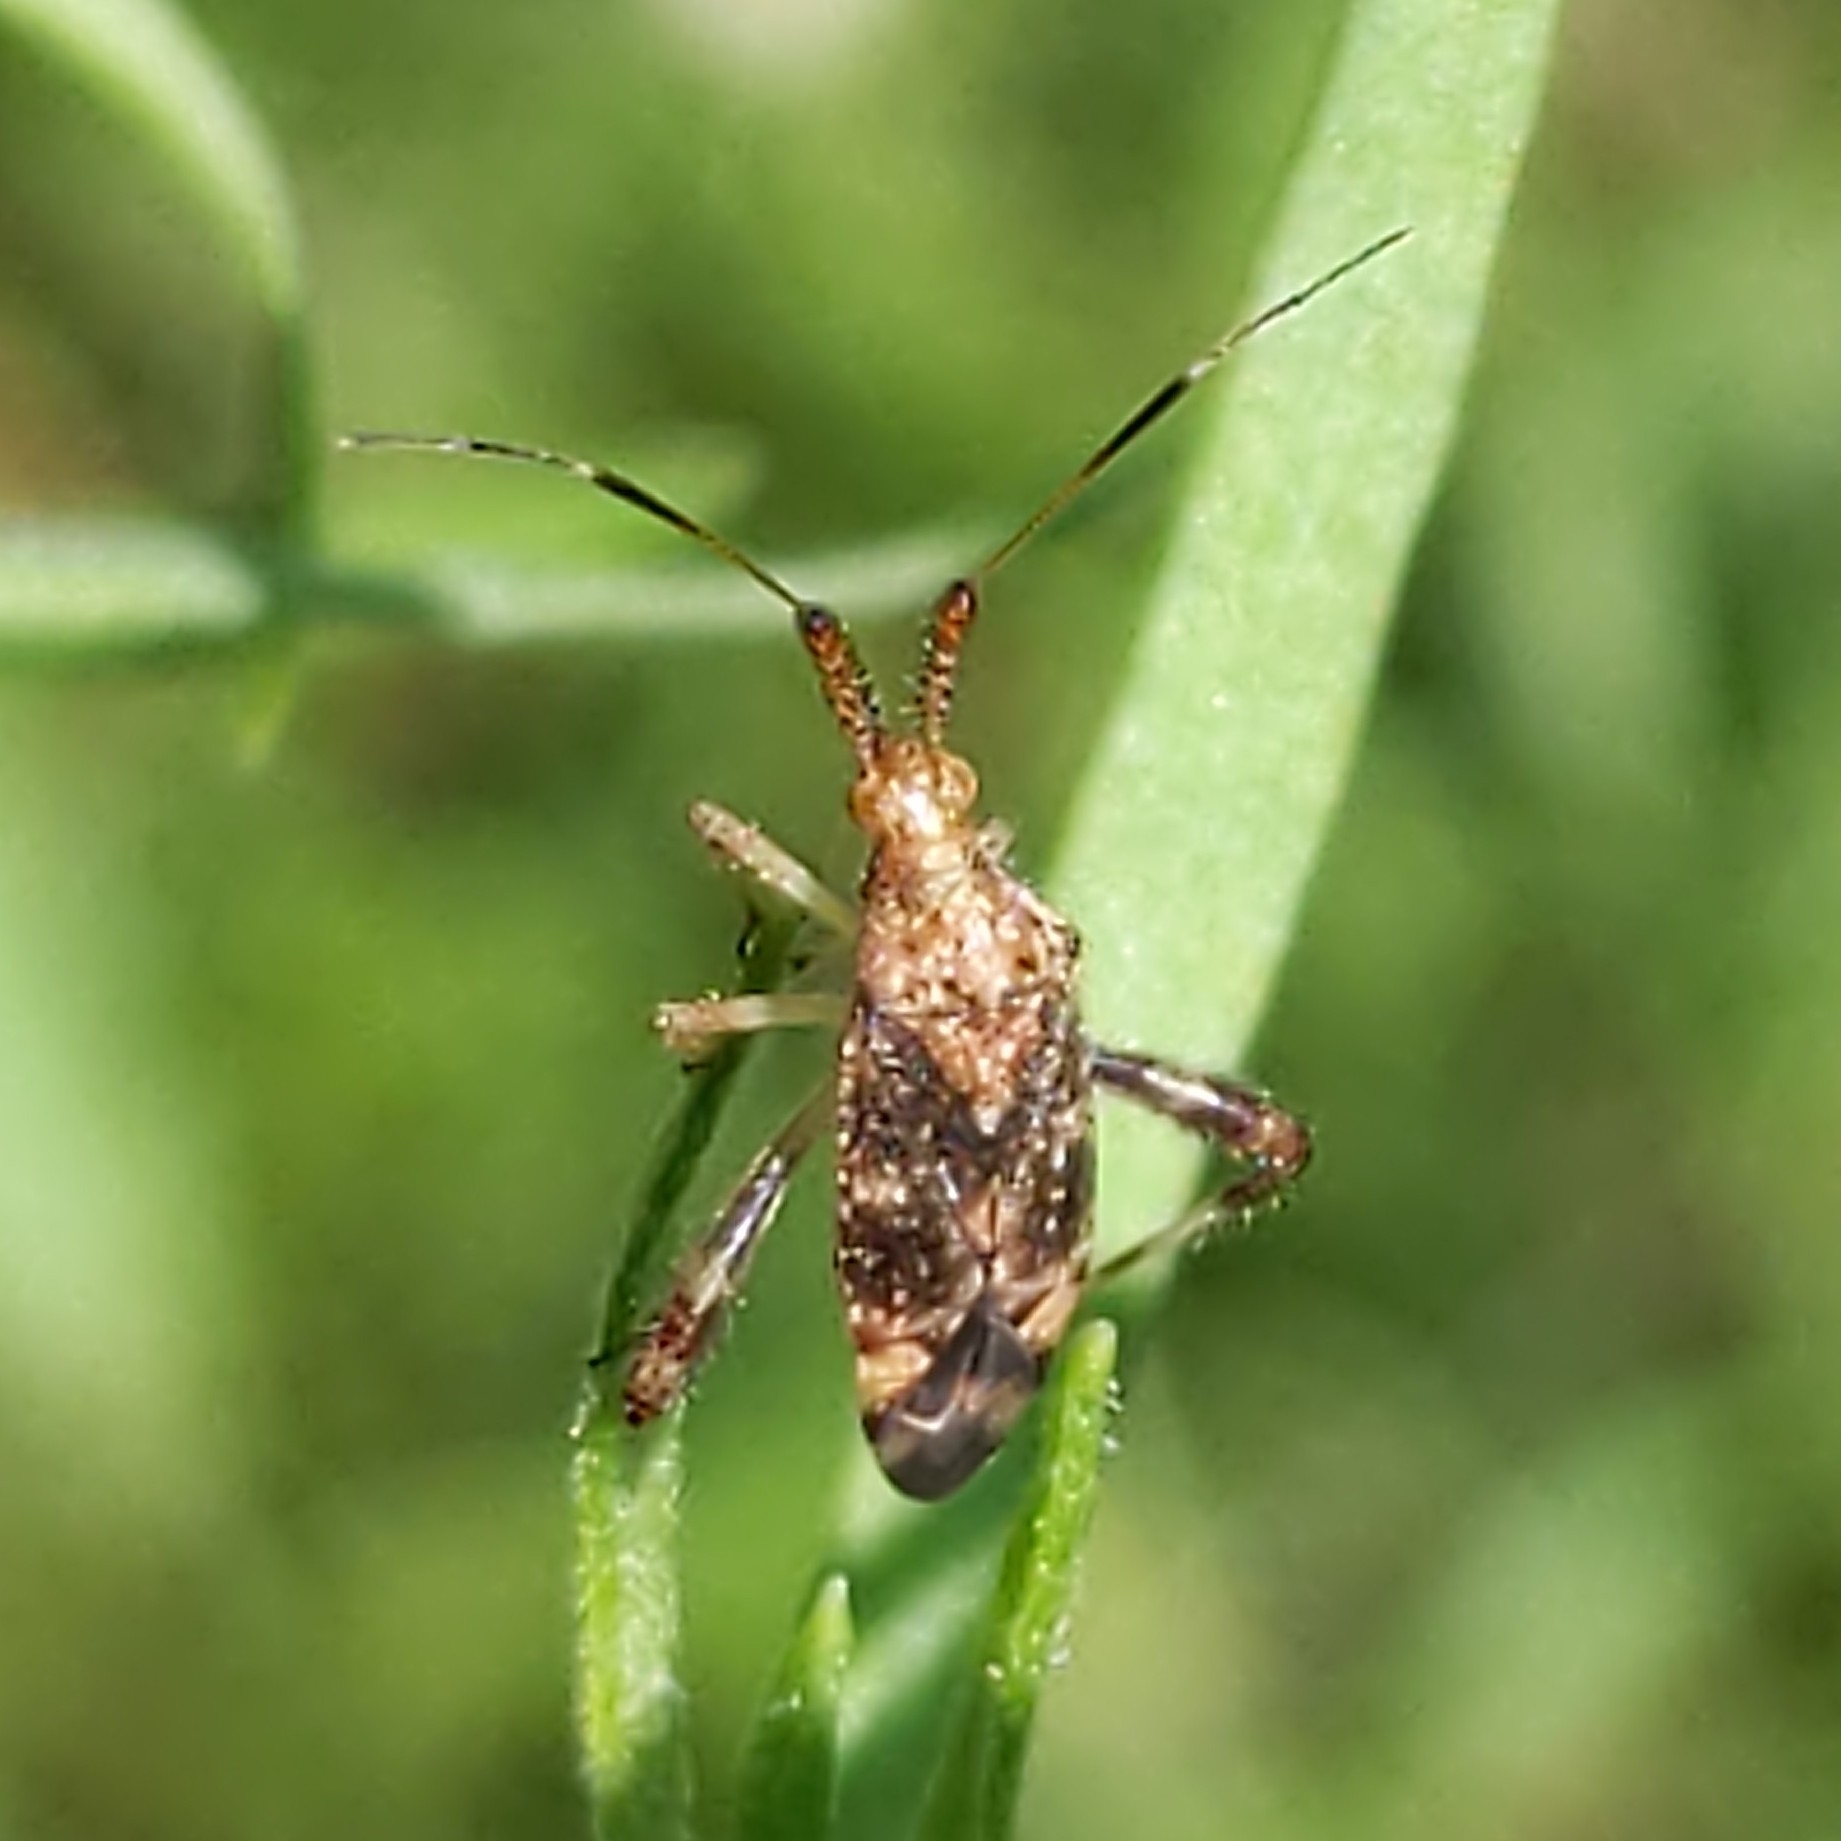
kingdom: Animalia
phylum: Arthropoda
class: Insecta
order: Hemiptera
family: Miridae
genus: Neurocolpus
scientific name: Neurocolpus nubilus
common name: Clouded plant bug
